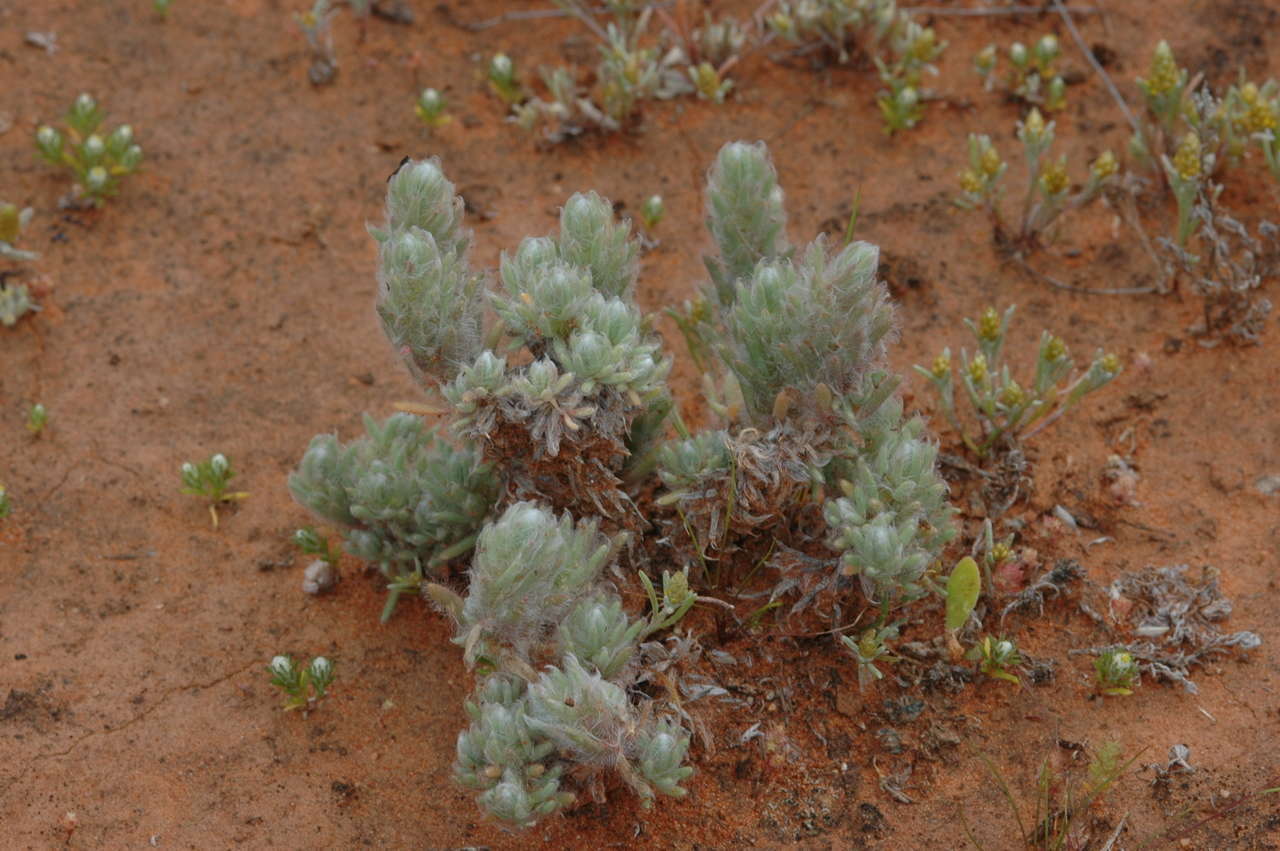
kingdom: Plantae
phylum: Tracheophyta
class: Magnoliopsida
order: Caryophyllales
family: Amaranthaceae
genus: Sclerolaena
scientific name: Sclerolaena brachyptera
